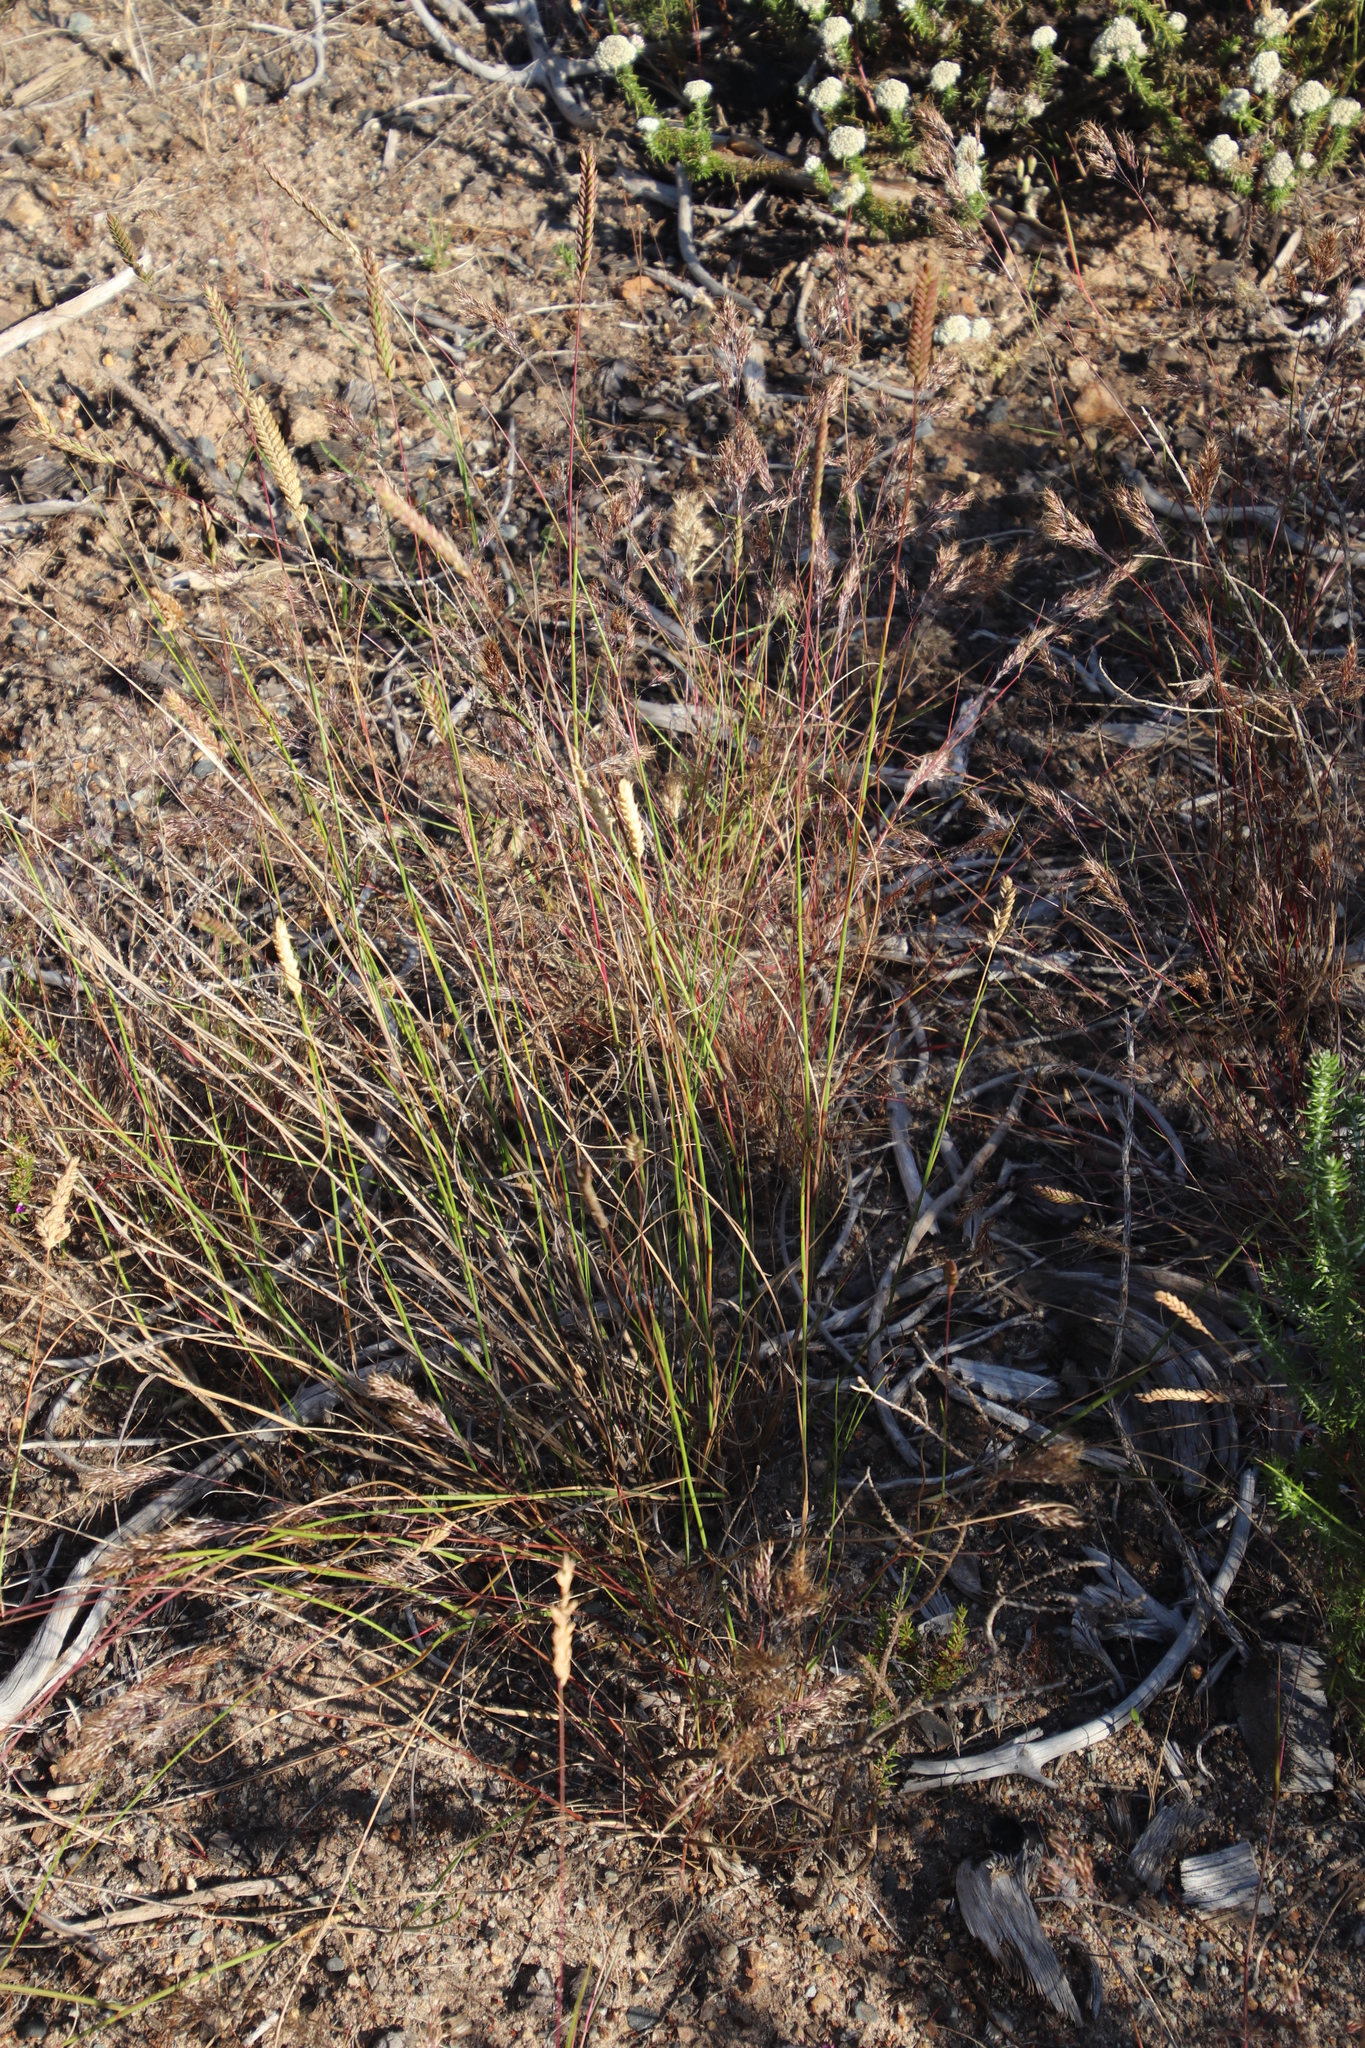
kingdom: Plantae
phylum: Tracheophyta
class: Liliopsida
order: Poales
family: Poaceae
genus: Tribolium
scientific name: Tribolium uniolae
